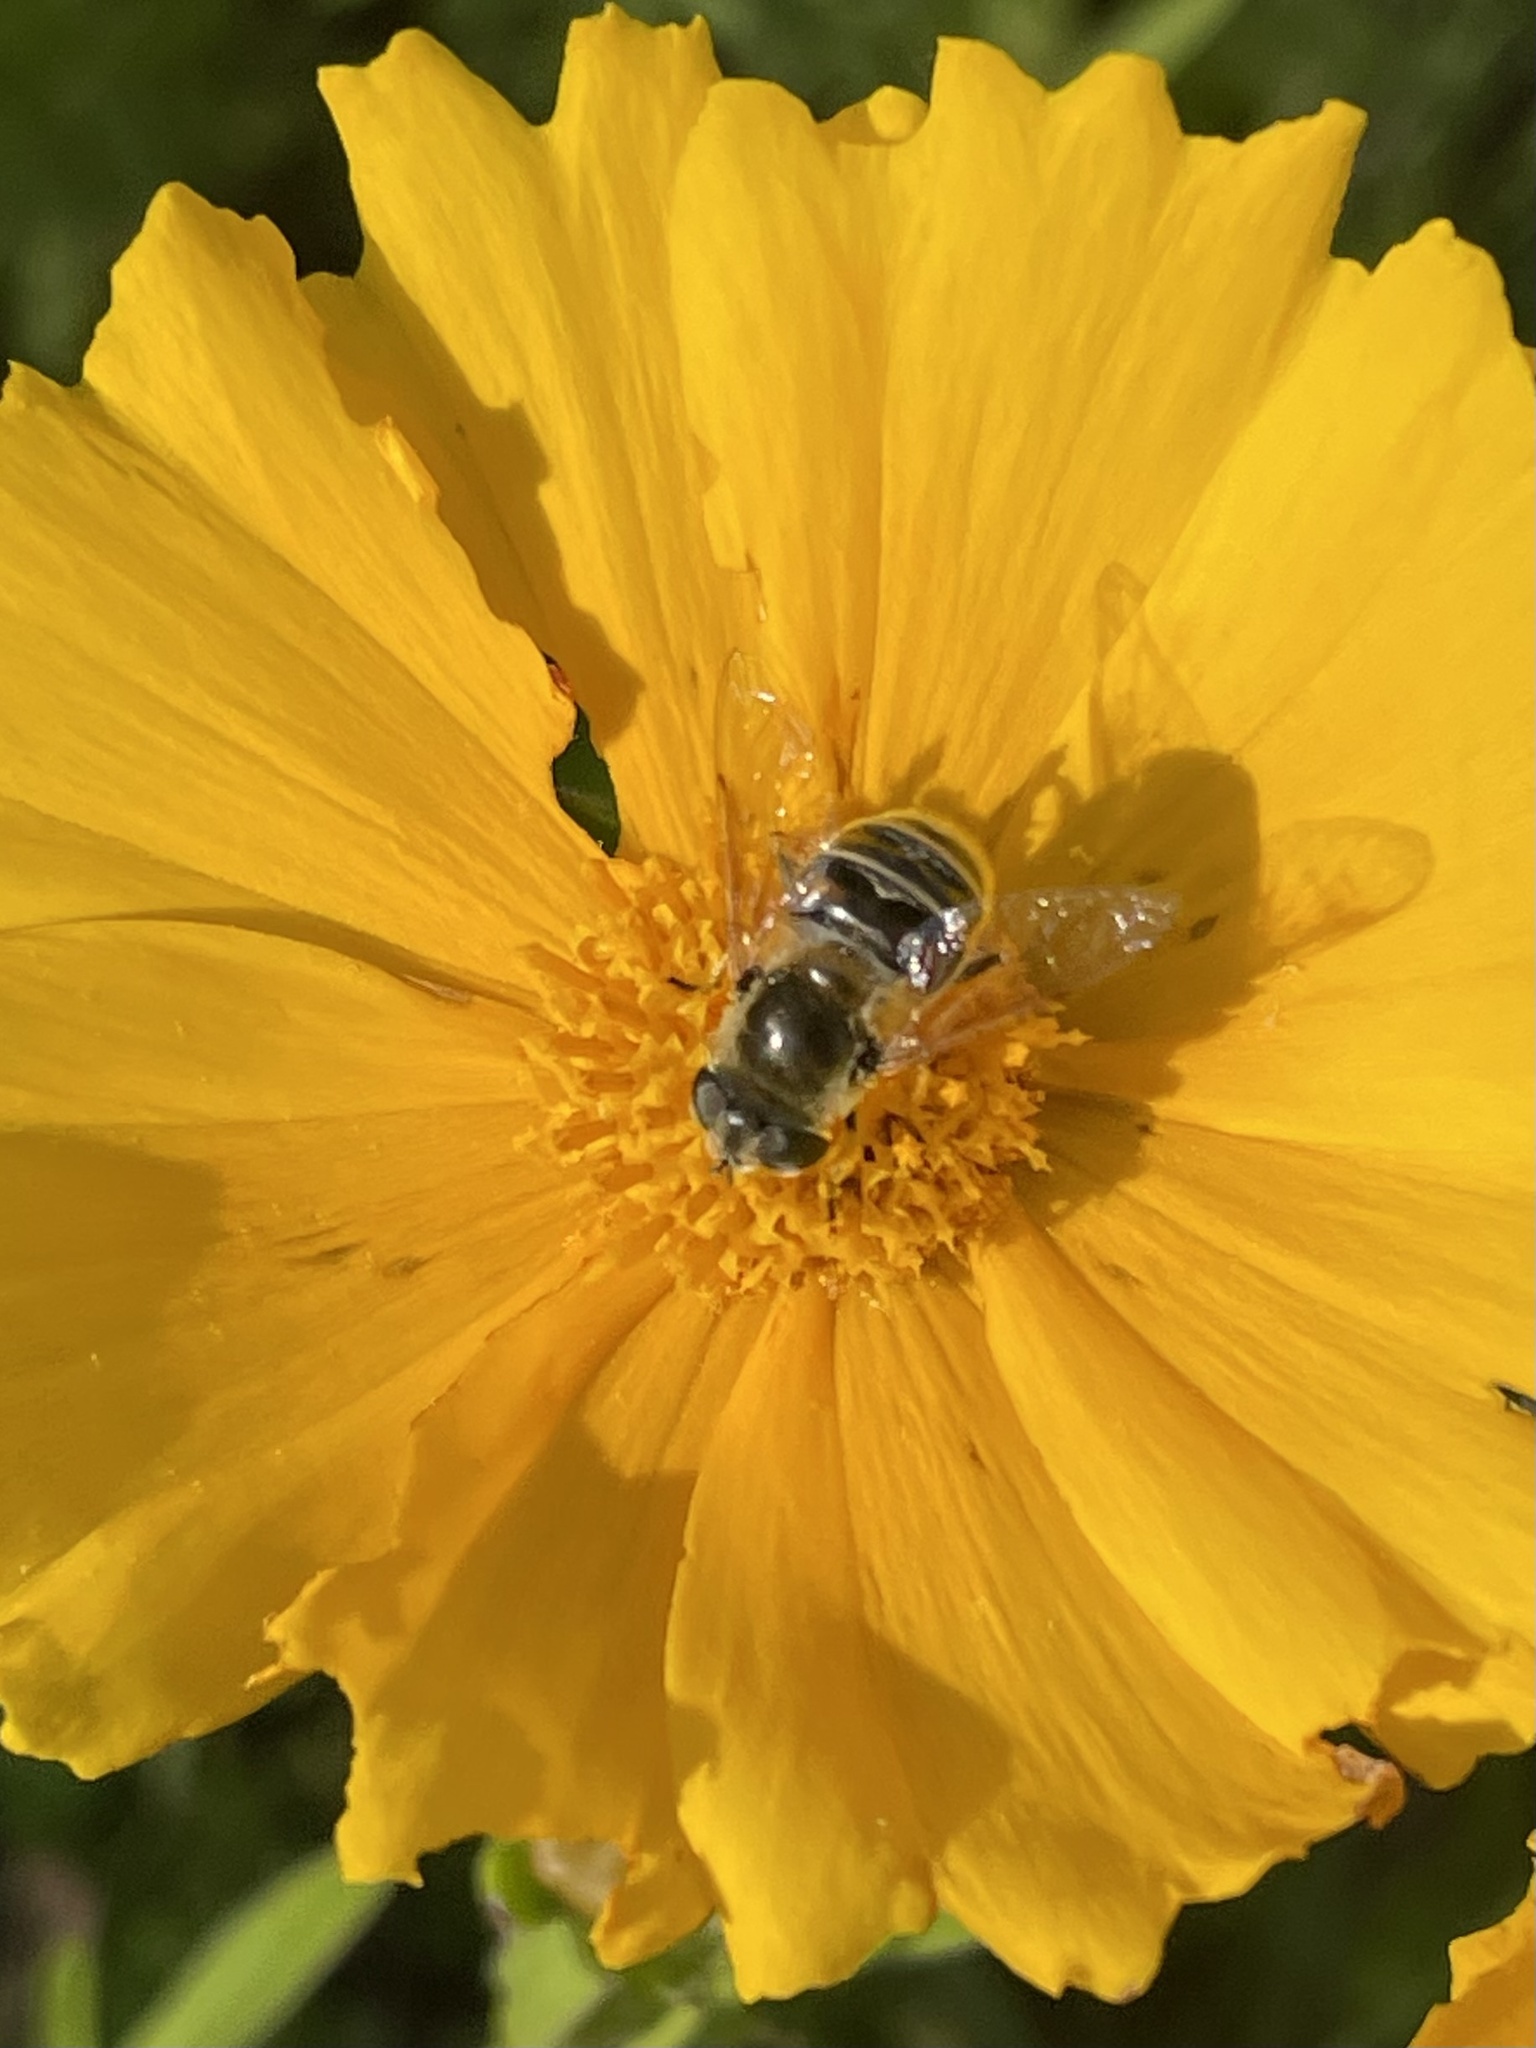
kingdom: Animalia
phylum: Arthropoda
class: Insecta
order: Diptera
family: Syrphidae
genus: Eristalis
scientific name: Eristalis stipator
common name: Yellow-shouldered drone fly
